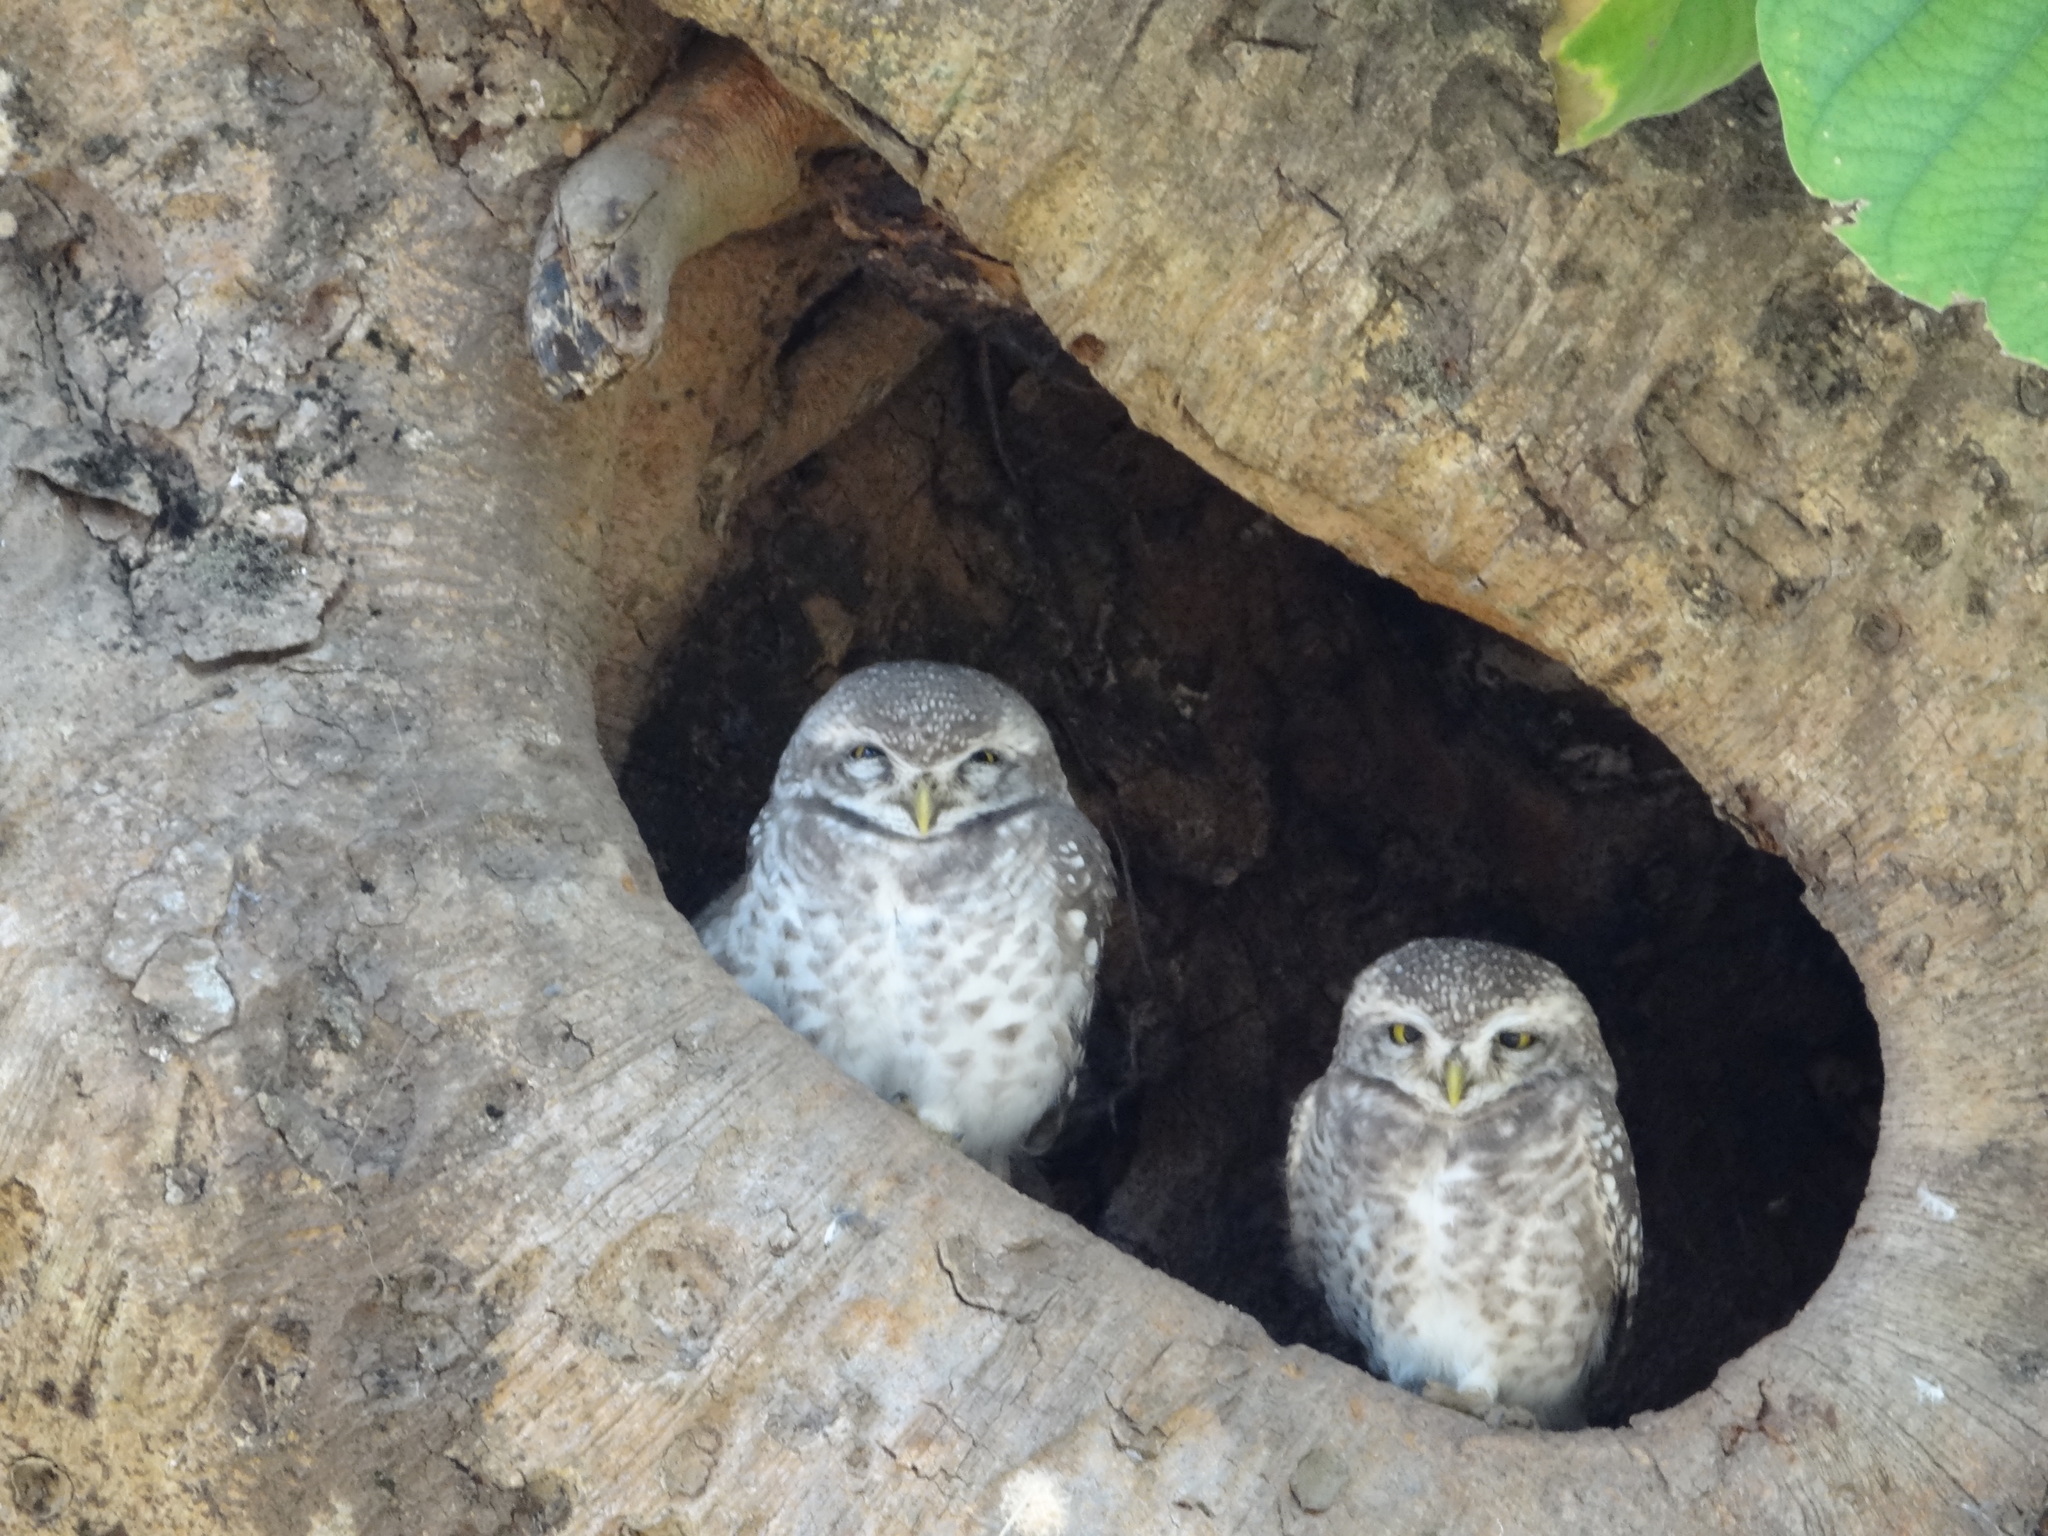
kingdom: Animalia
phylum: Chordata
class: Aves
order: Strigiformes
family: Strigidae
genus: Athene
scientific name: Athene brama
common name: Spotted owlet
